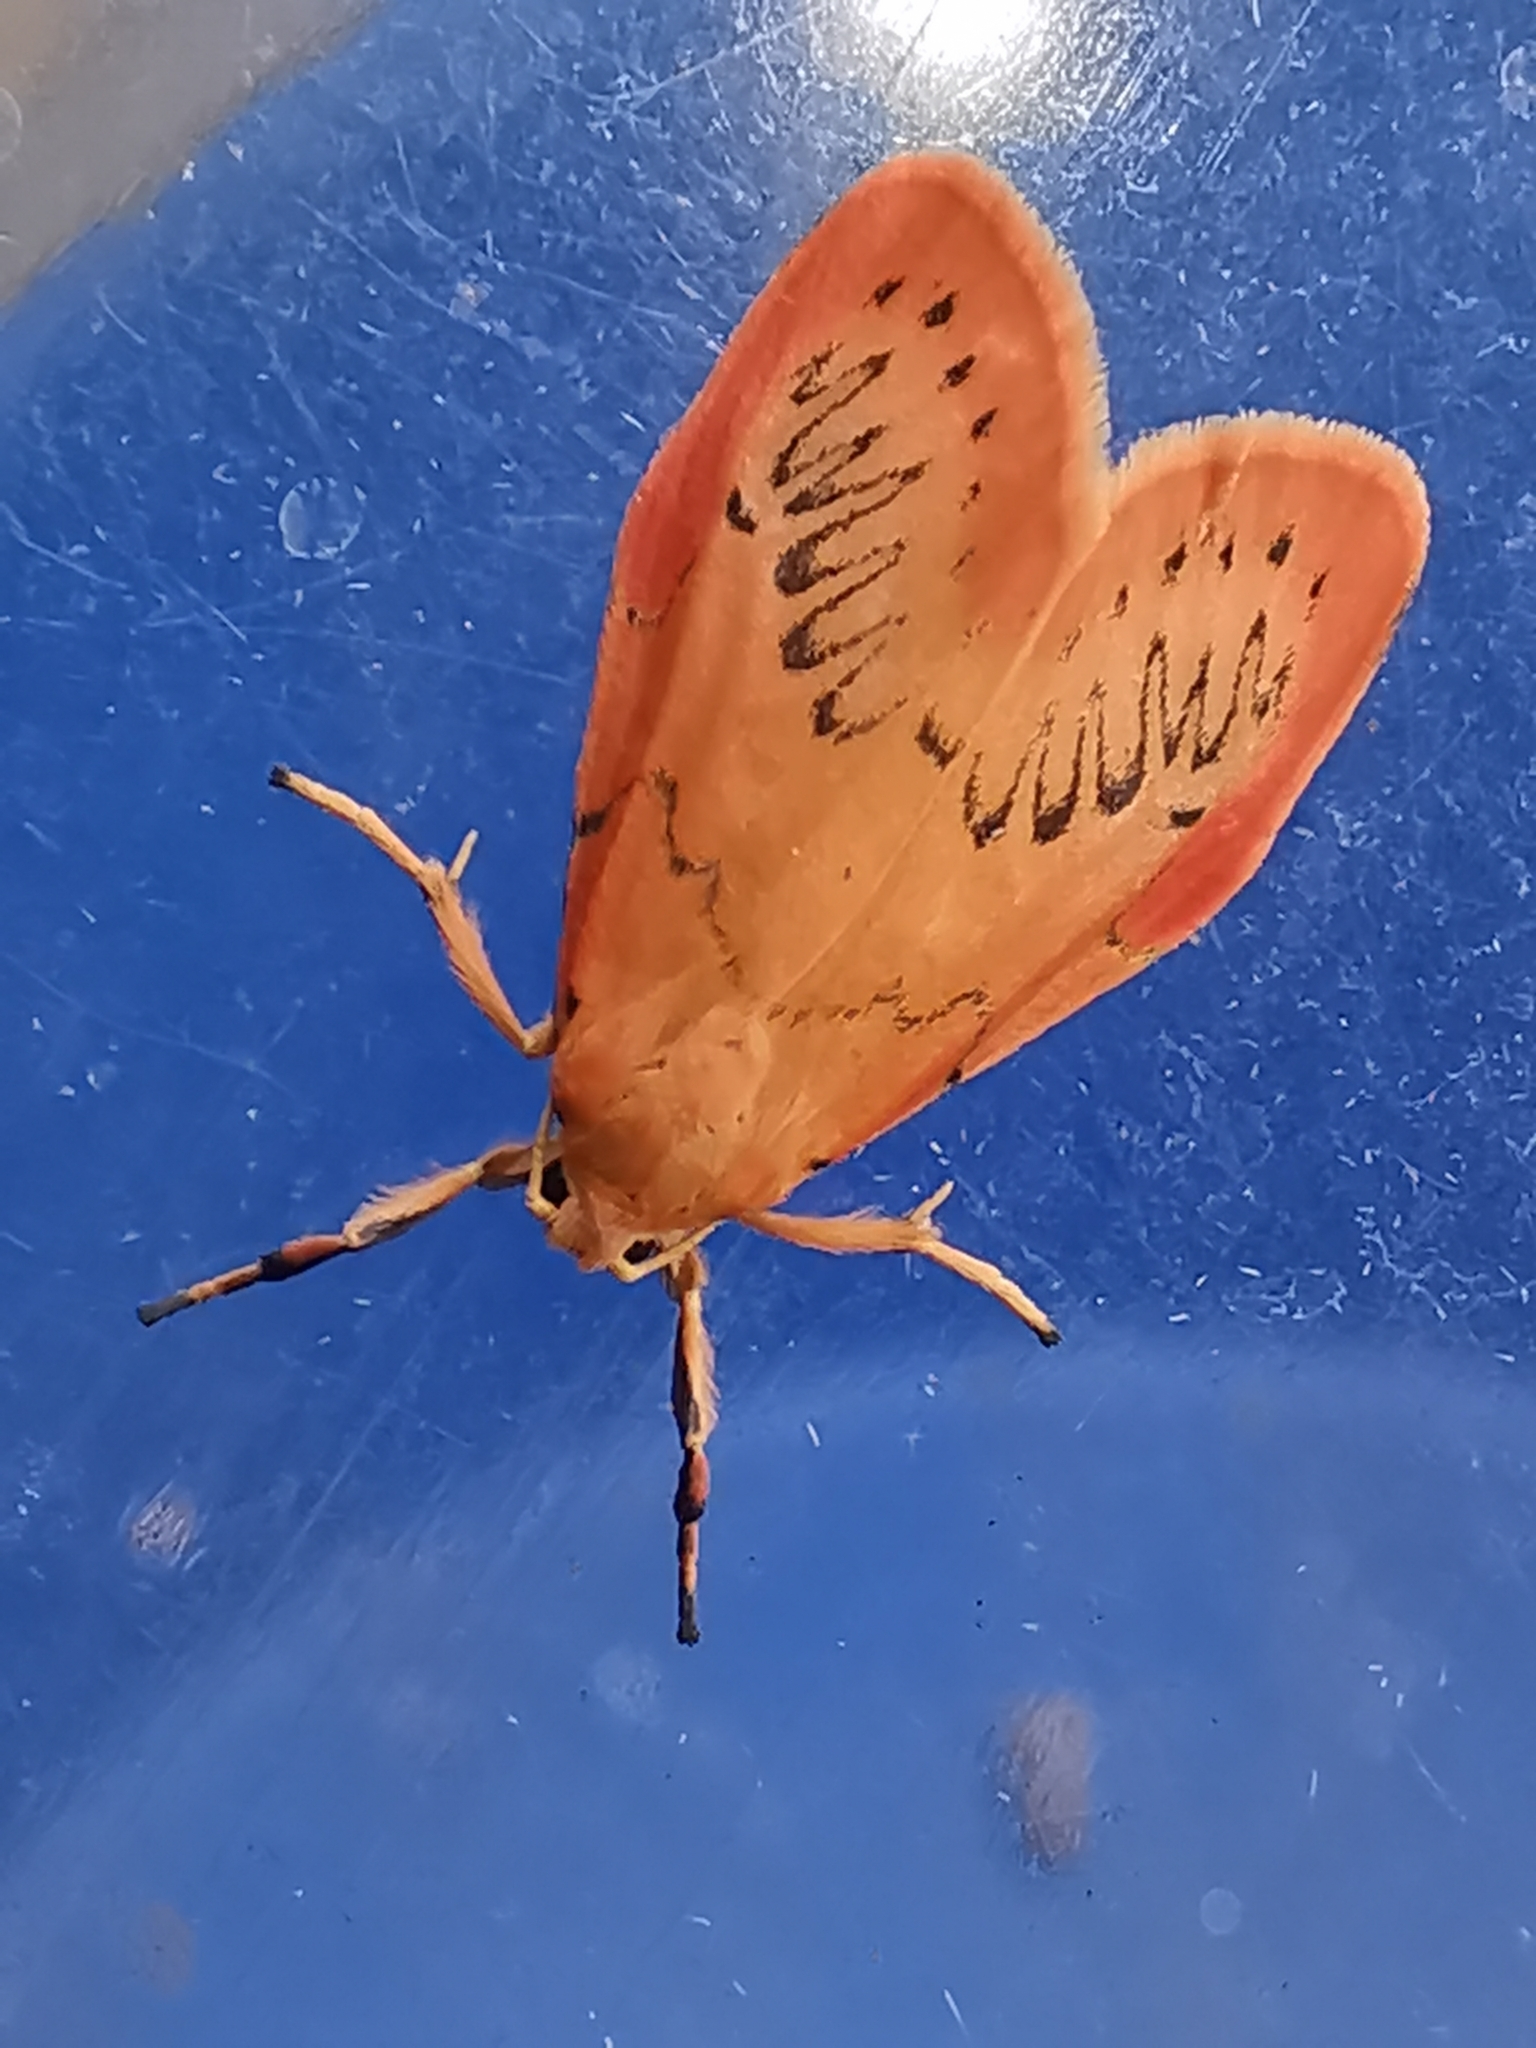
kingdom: Animalia
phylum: Arthropoda
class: Insecta
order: Lepidoptera
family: Erebidae
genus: Miltochrista
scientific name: Miltochrista miniata
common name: Rosy footman
